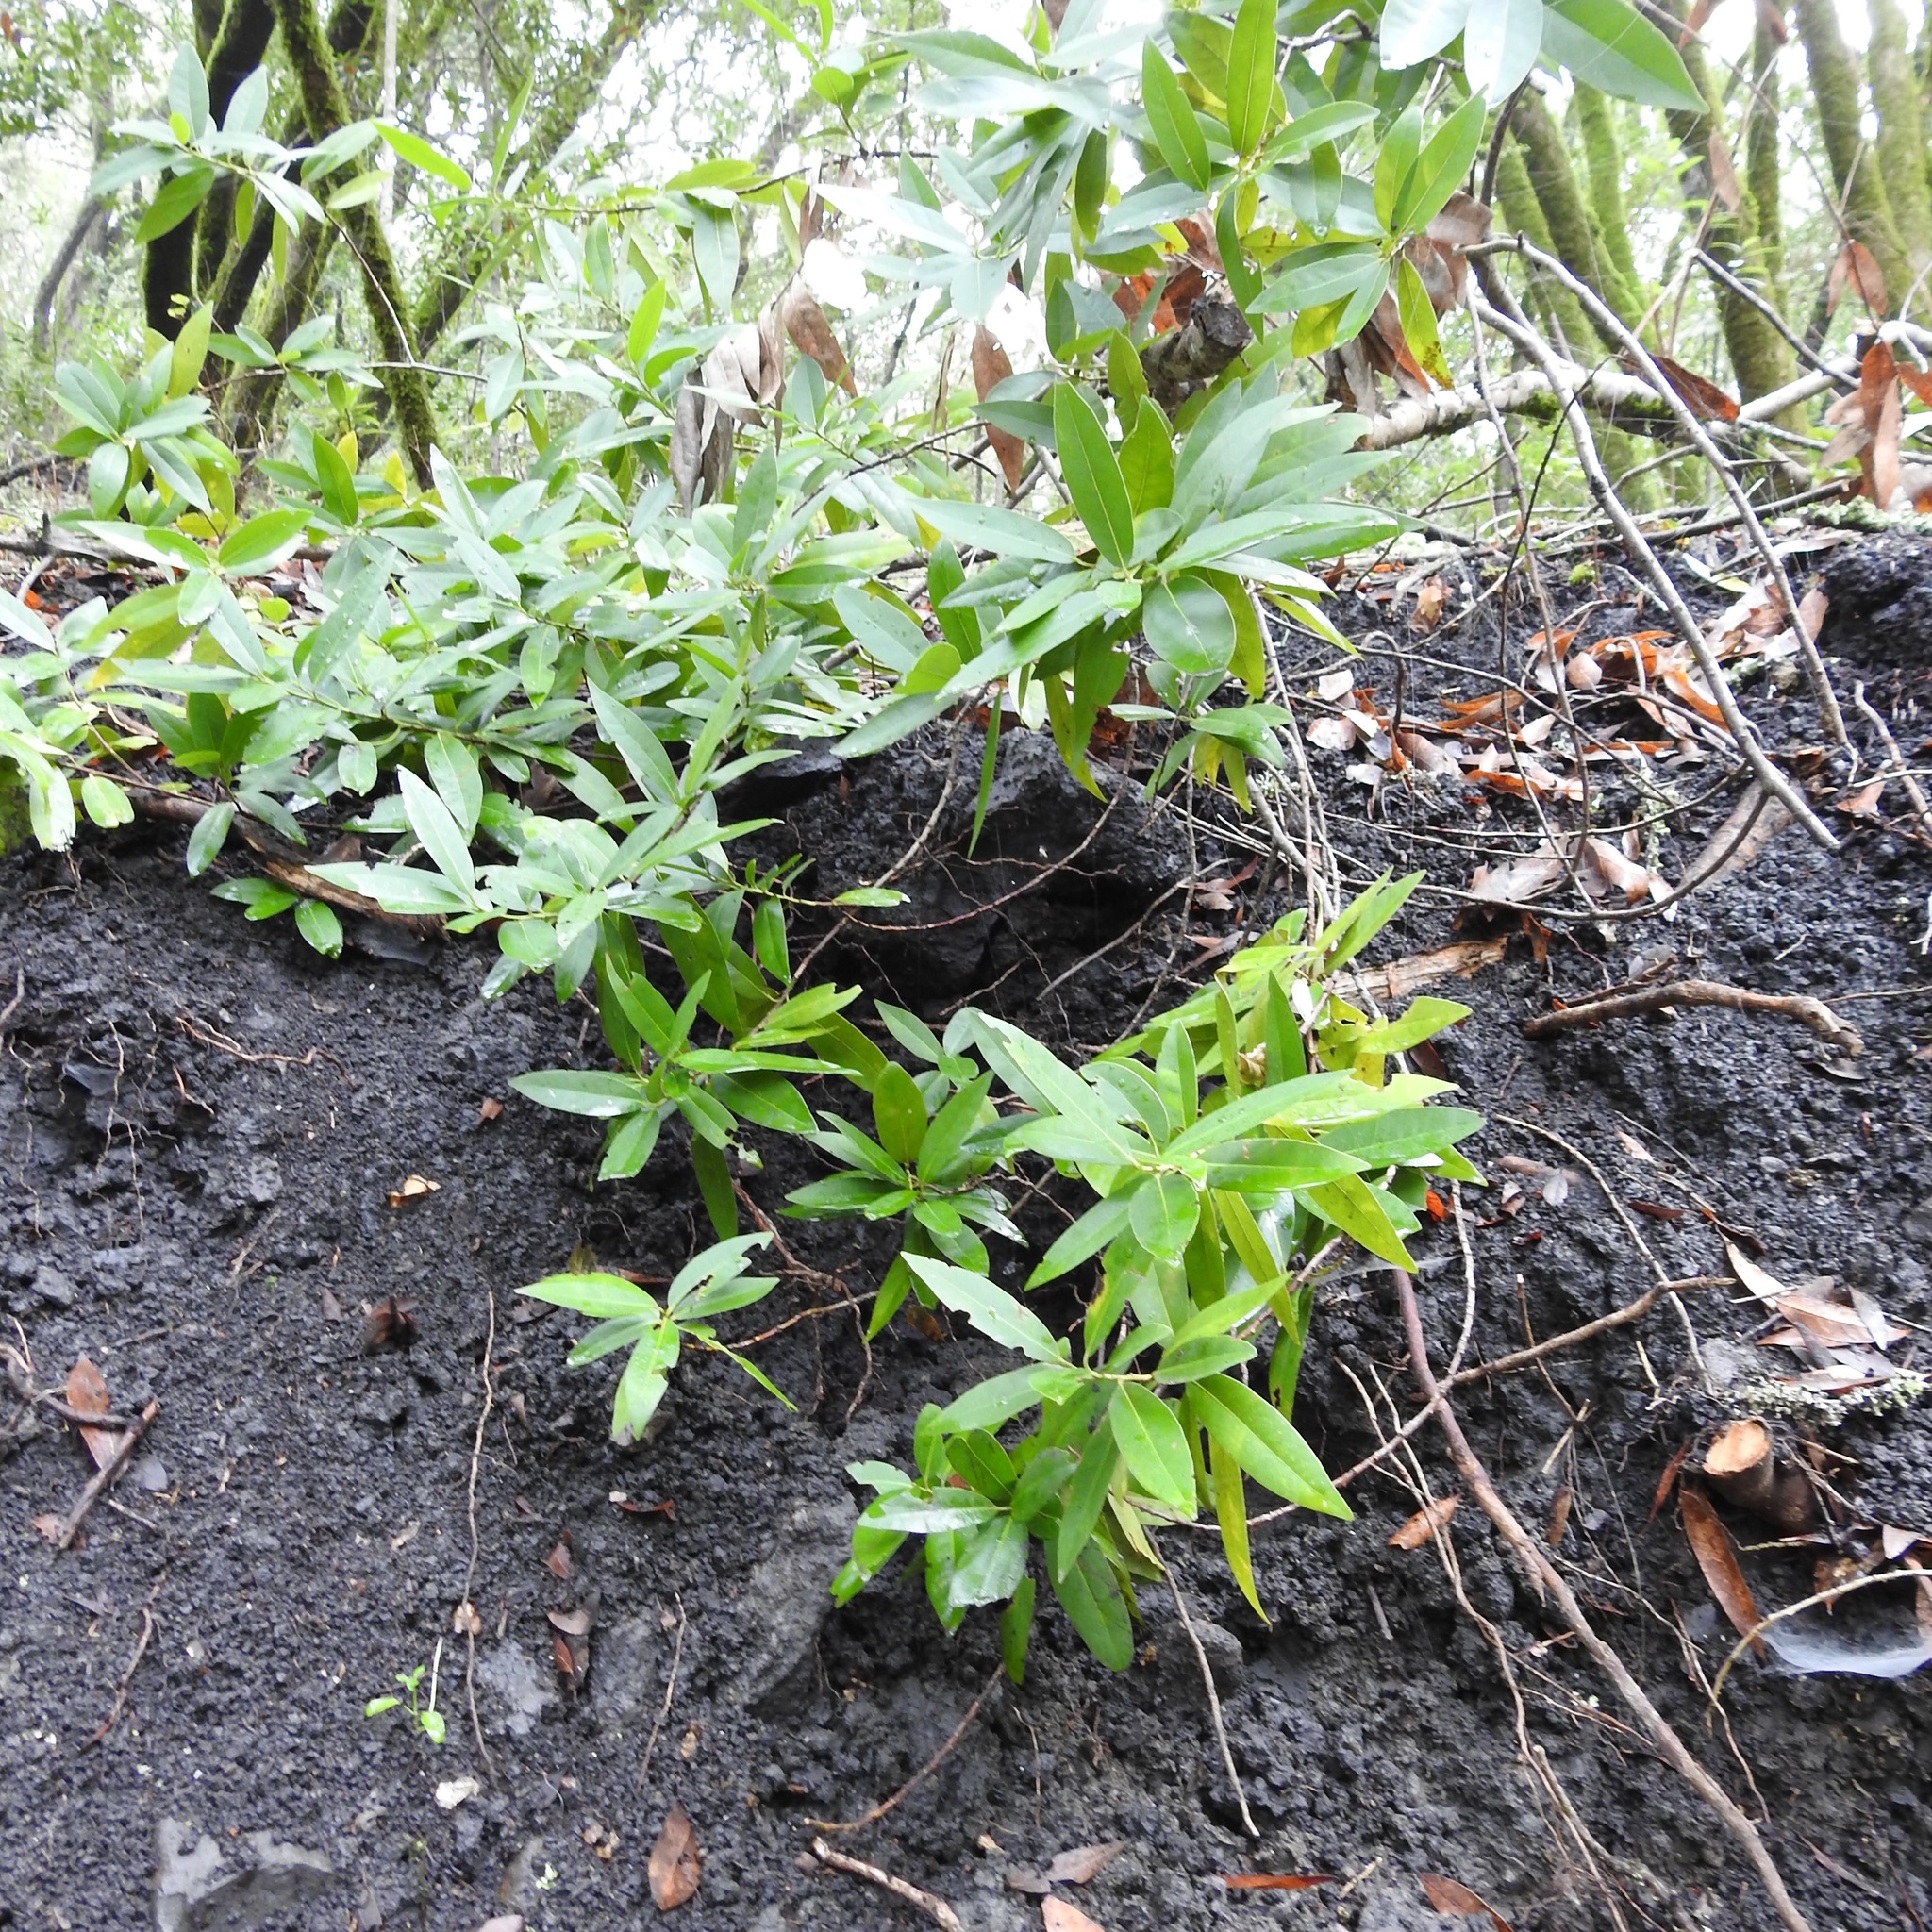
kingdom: Plantae
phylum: Tracheophyta
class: Magnoliopsida
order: Laurales
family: Lauraceae
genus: Umbellularia
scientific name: Umbellularia californica
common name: California bay
